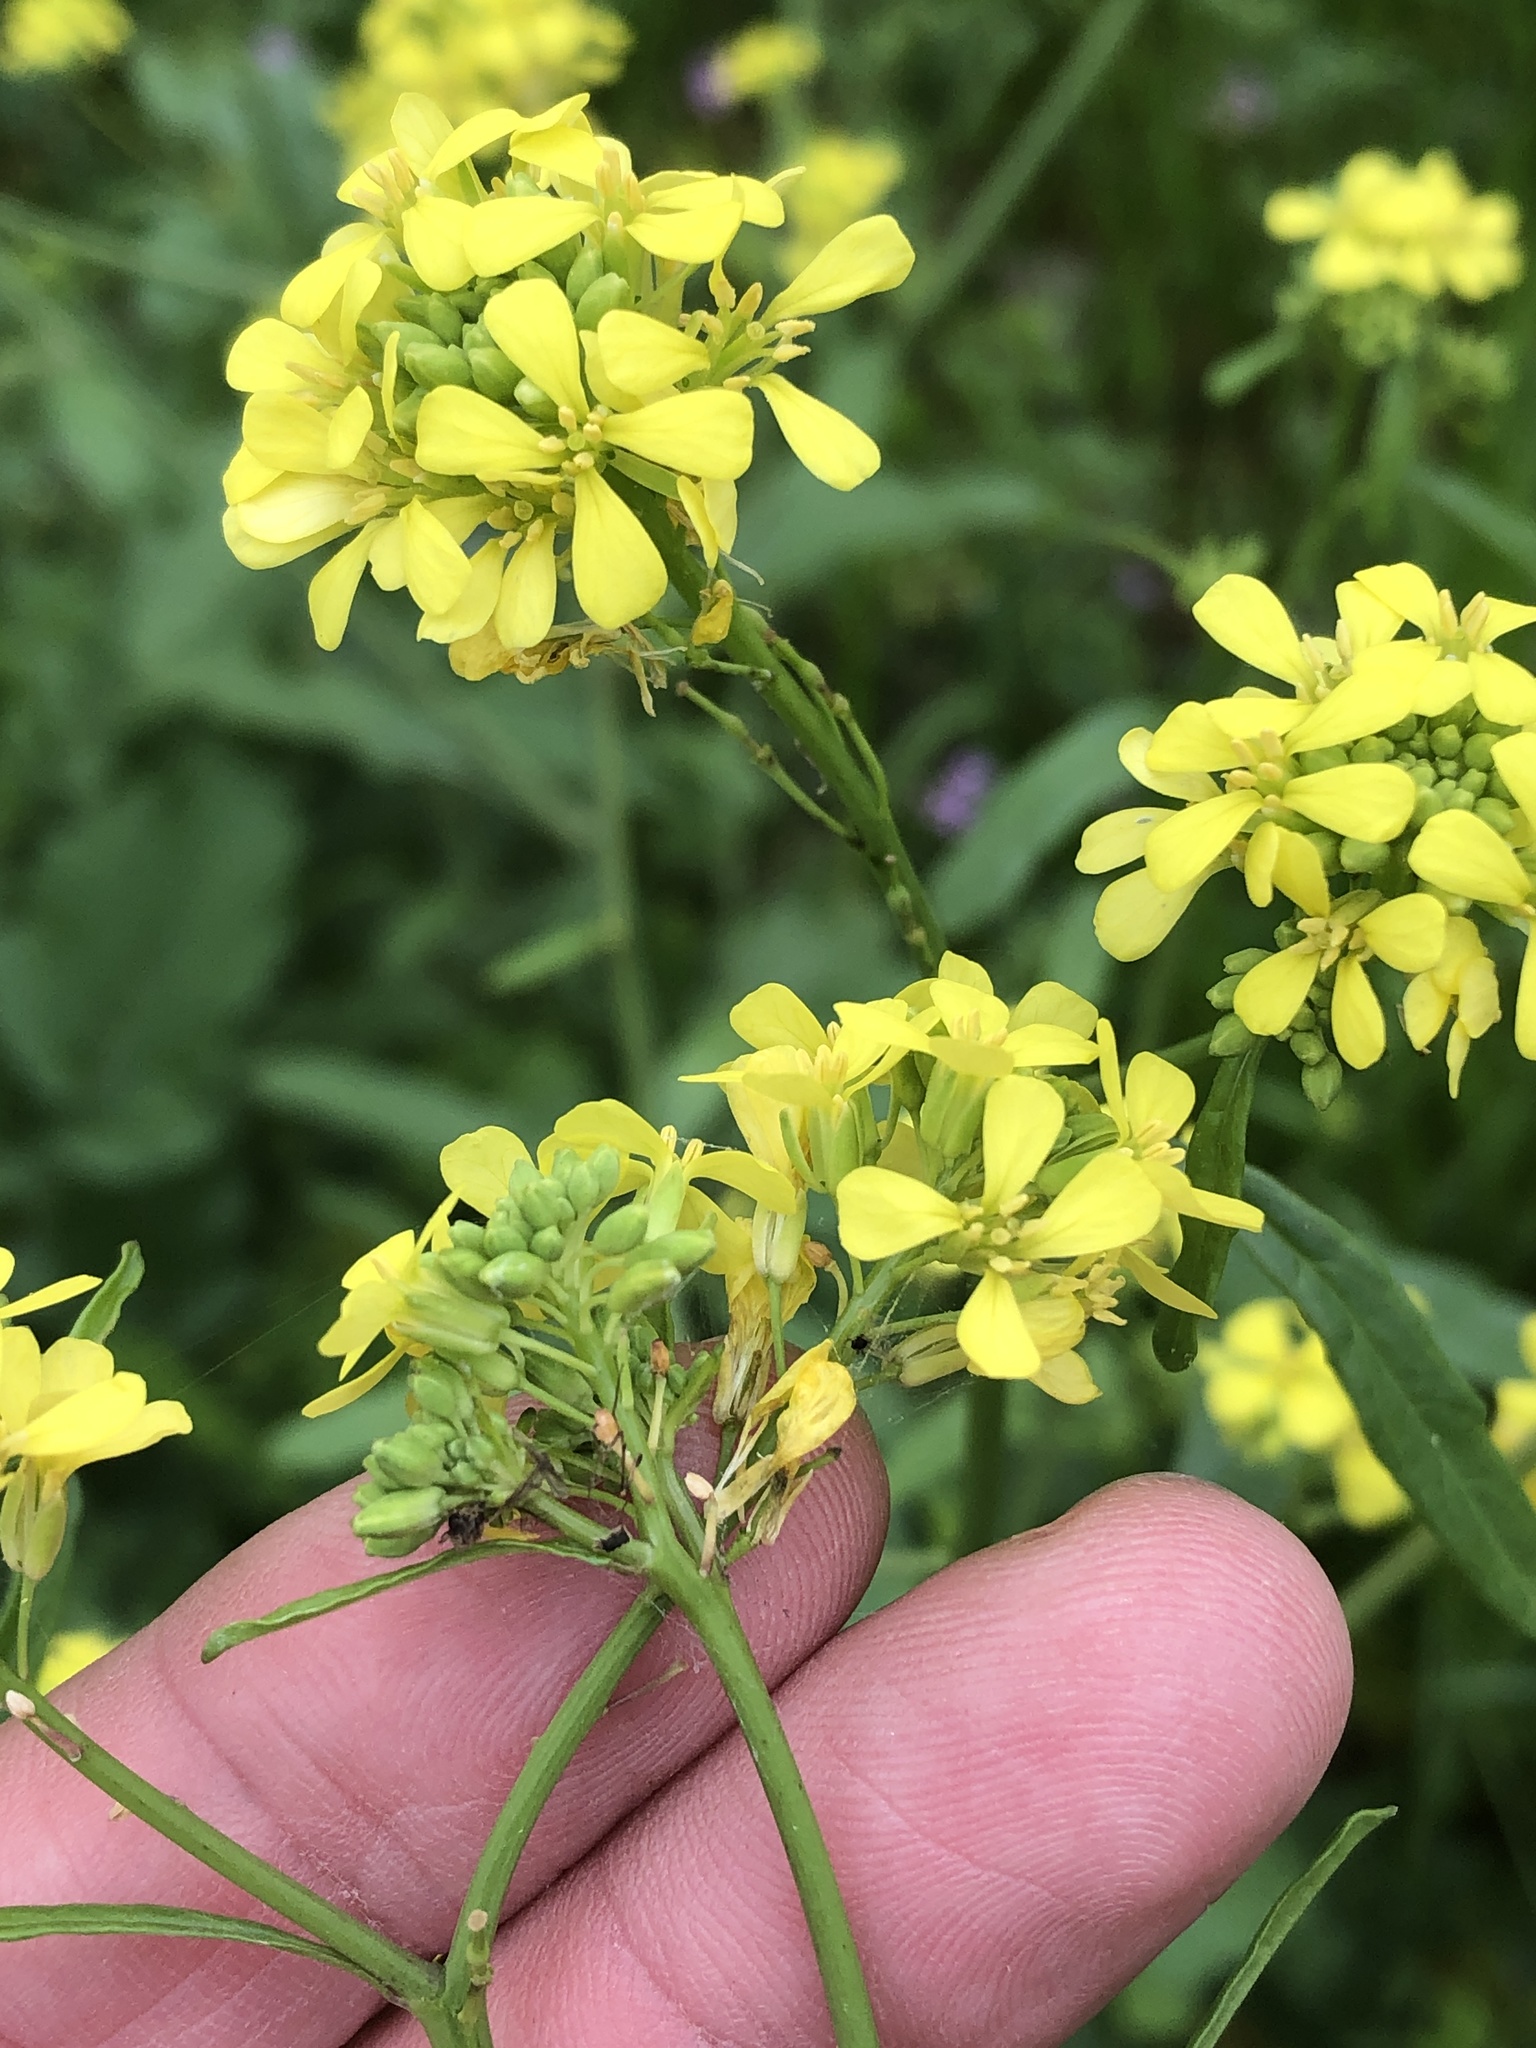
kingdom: Plantae
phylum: Tracheophyta
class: Magnoliopsida
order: Brassicales
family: Brassicaceae
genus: Rapistrum
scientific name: Rapistrum rugosum
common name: Annual bastardcabbage
